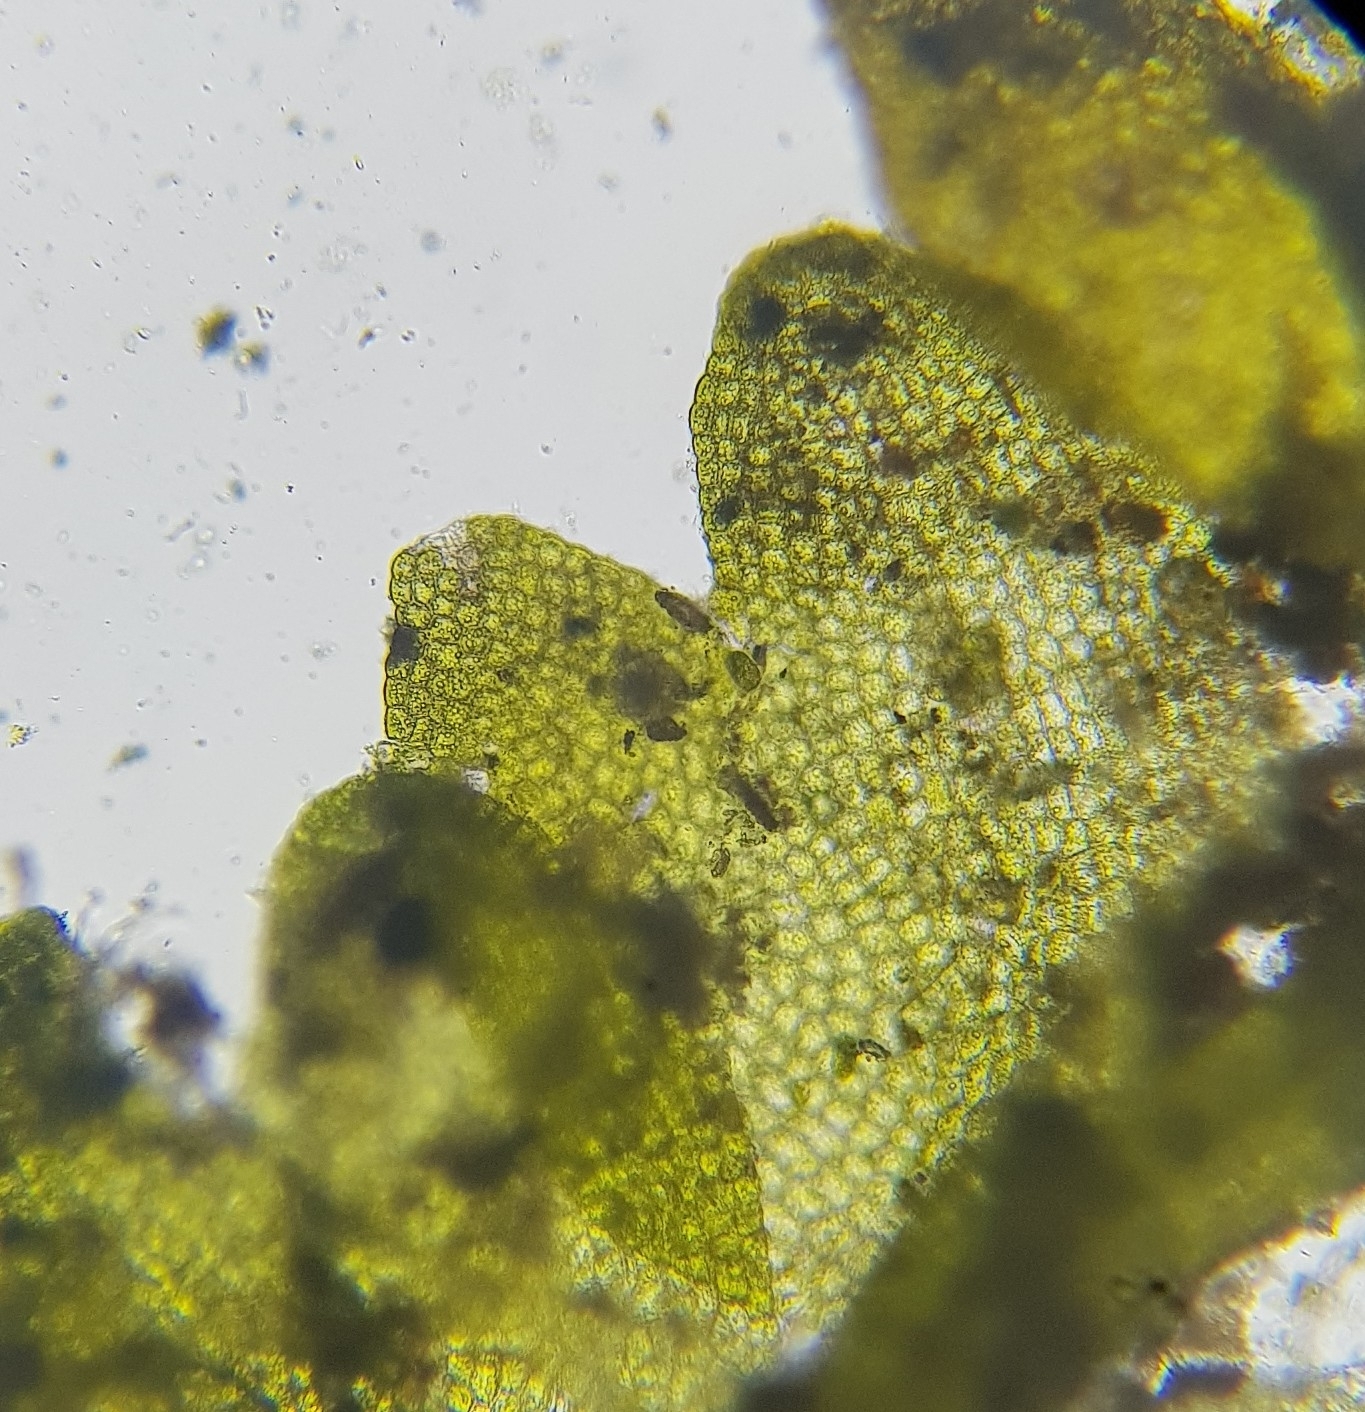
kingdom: Plantae
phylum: Marchantiophyta
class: Jungermanniopsida
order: Jungermanniales
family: Anastrophyllaceae
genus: Gymnocolea
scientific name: Gymnocolea inflata
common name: Inflated notchwort
